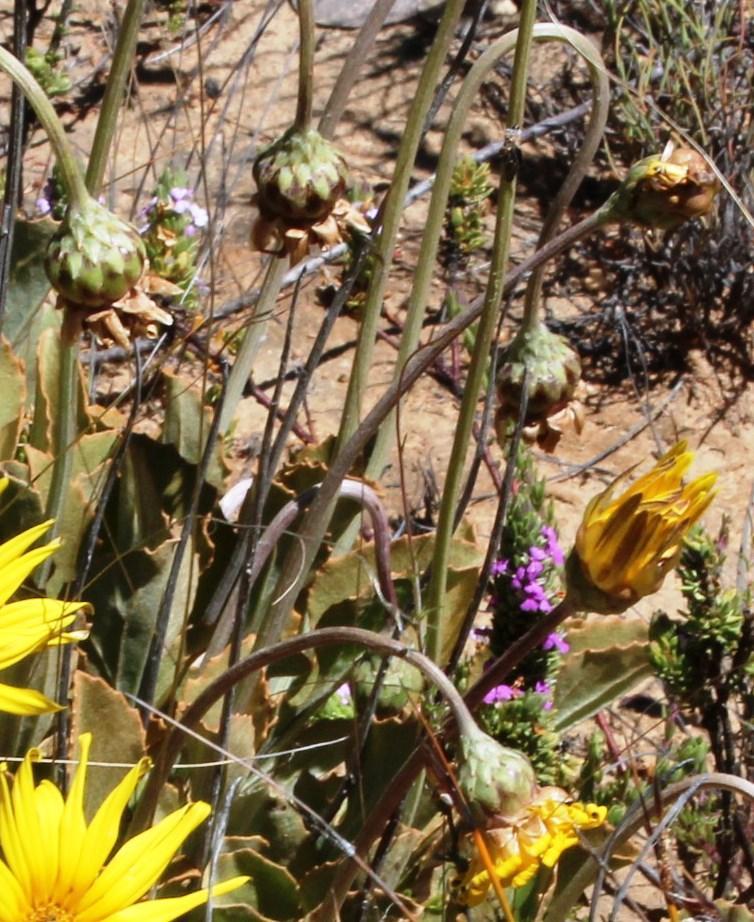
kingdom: Plantae
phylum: Tracheophyta
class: Magnoliopsida
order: Asterales
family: Asteraceae
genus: Arctotis
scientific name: Arctotis adpressa
